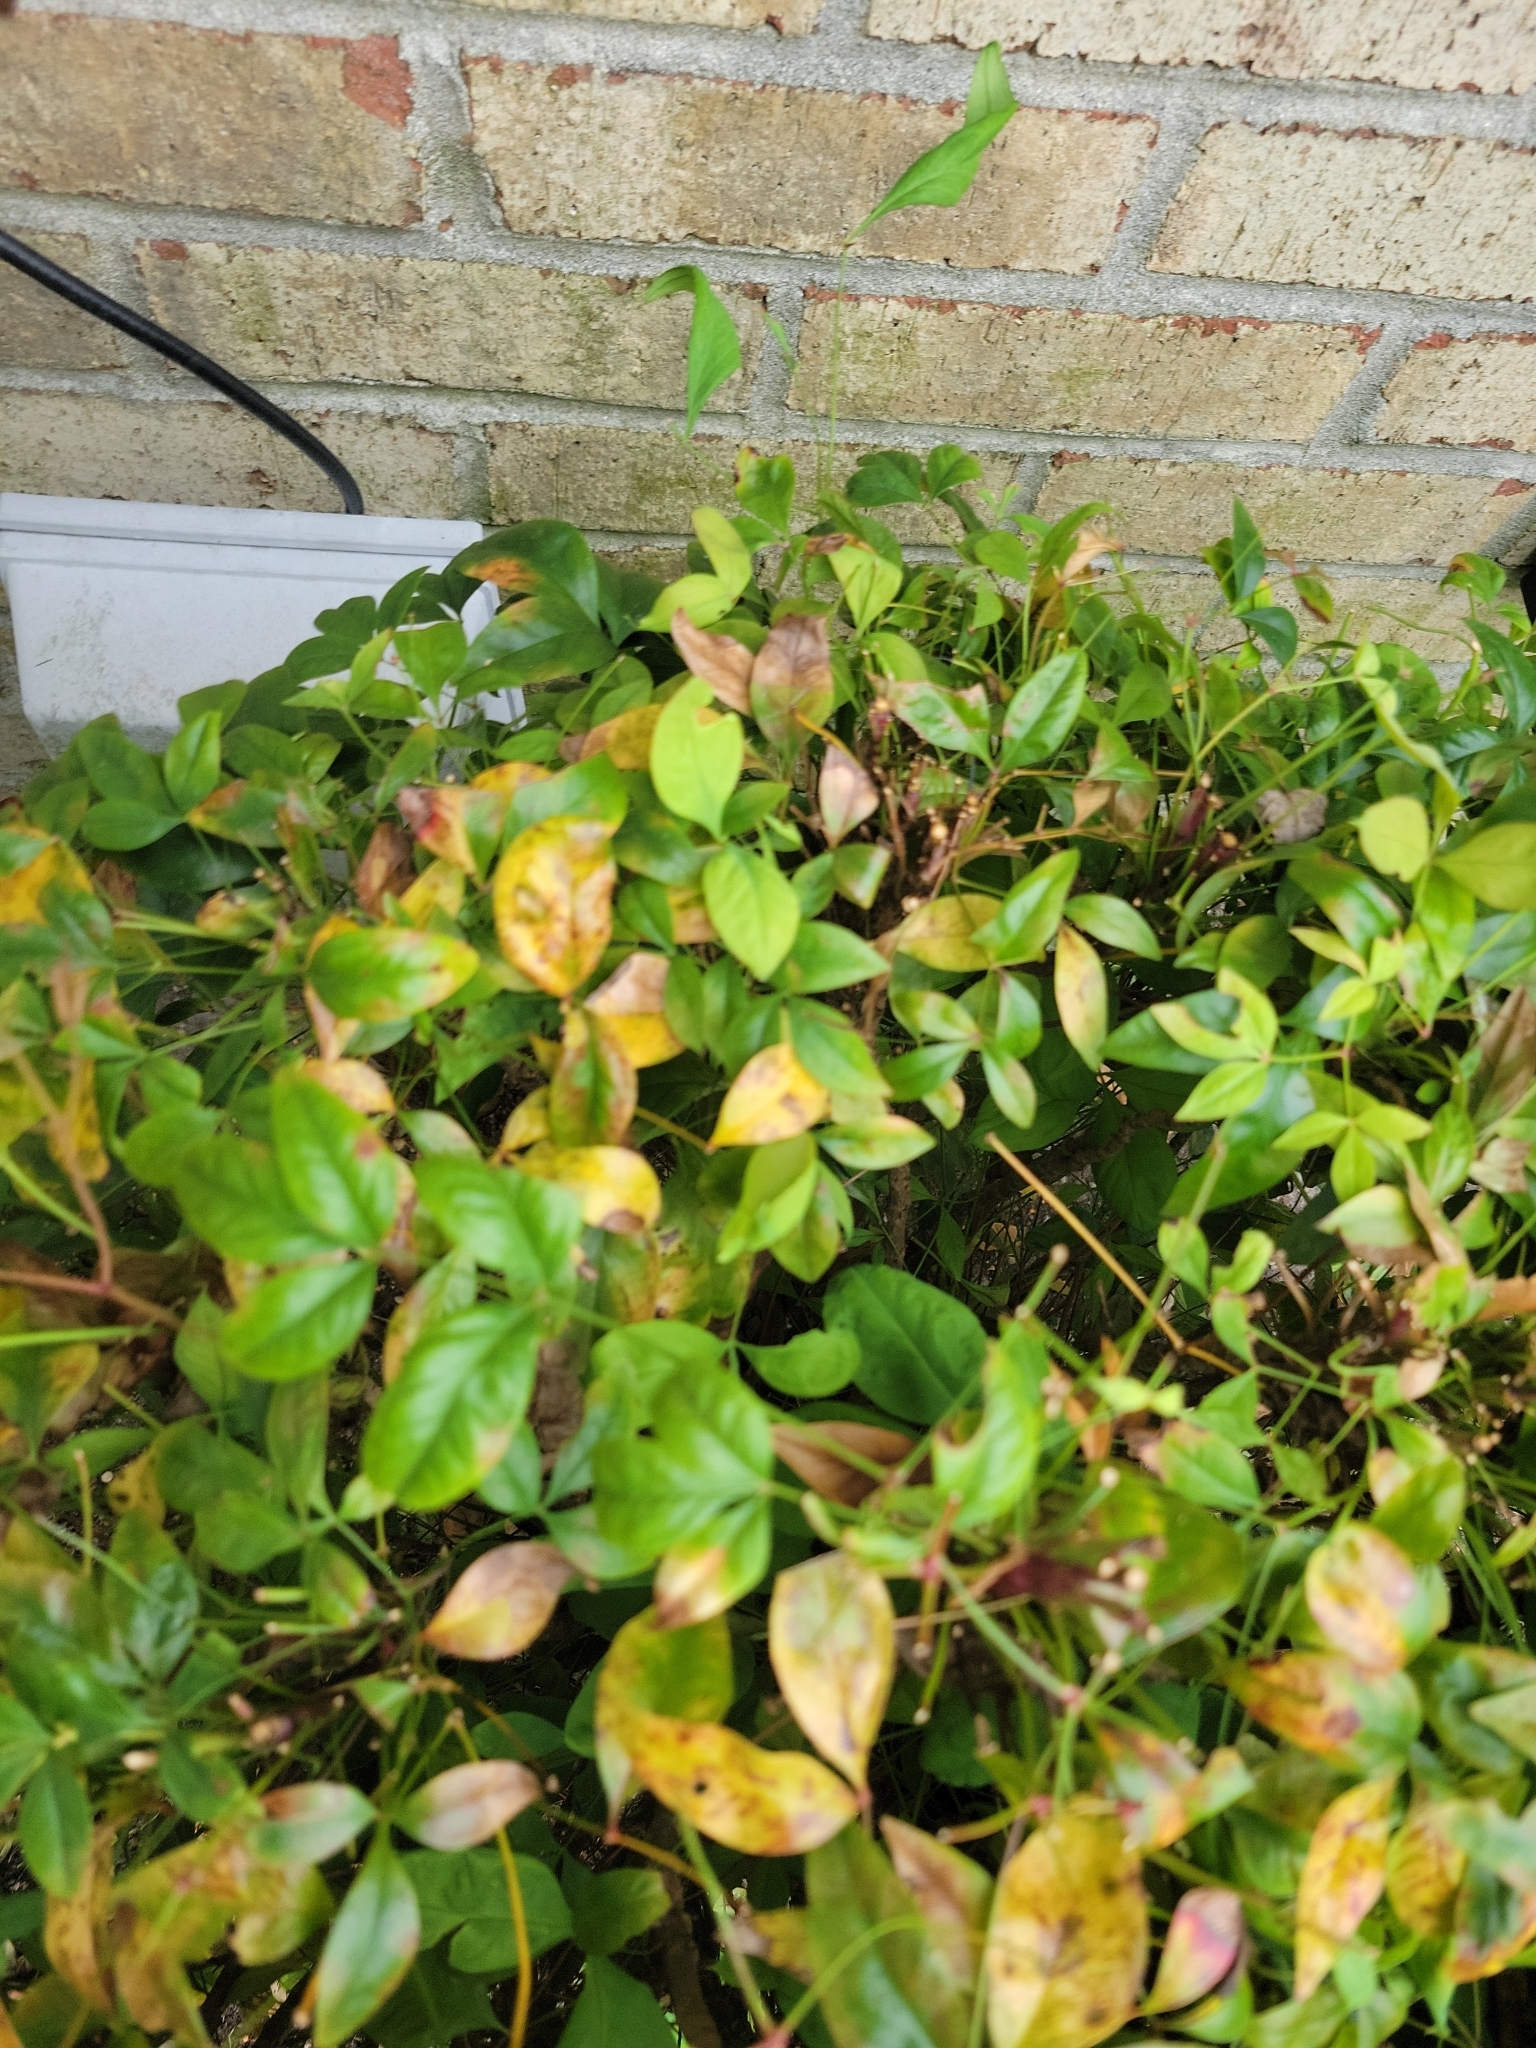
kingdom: Plantae
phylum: Tracheophyta
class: Magnoliopsida
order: Ranunculales
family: Berberidaceae
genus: Nandina
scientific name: Nandina domestica
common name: Sacred bamboo
